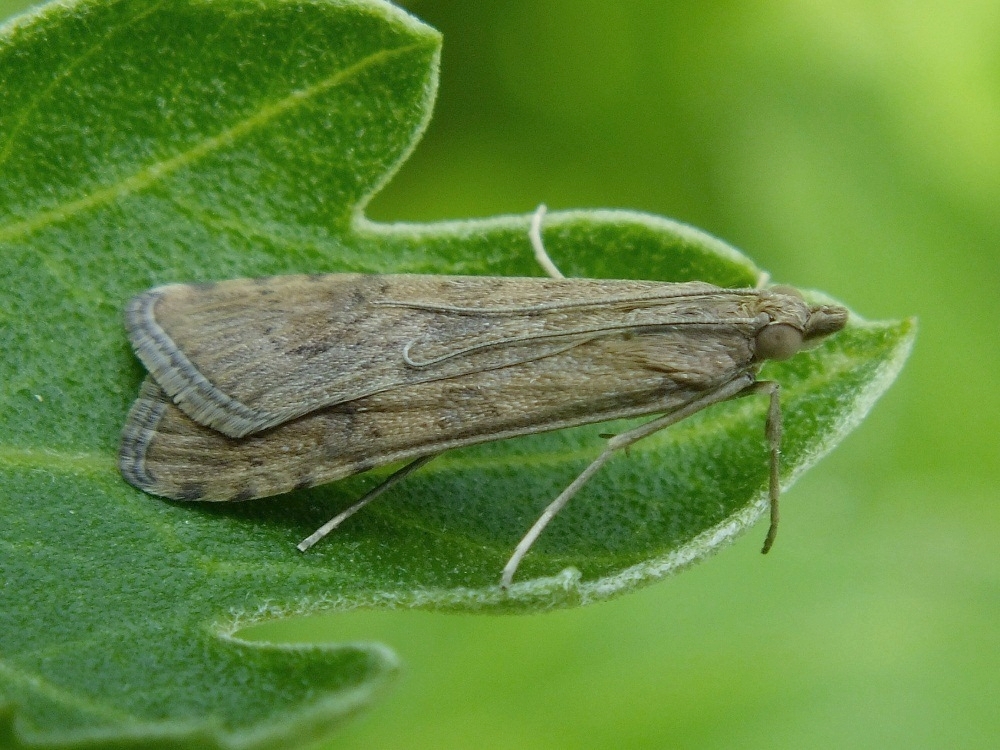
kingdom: Animalia
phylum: Arthropoda
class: Insecta
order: Lepidoptera
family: Crambidae
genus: Nomophila
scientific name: Nomophila noctuella
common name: Rush veneer
